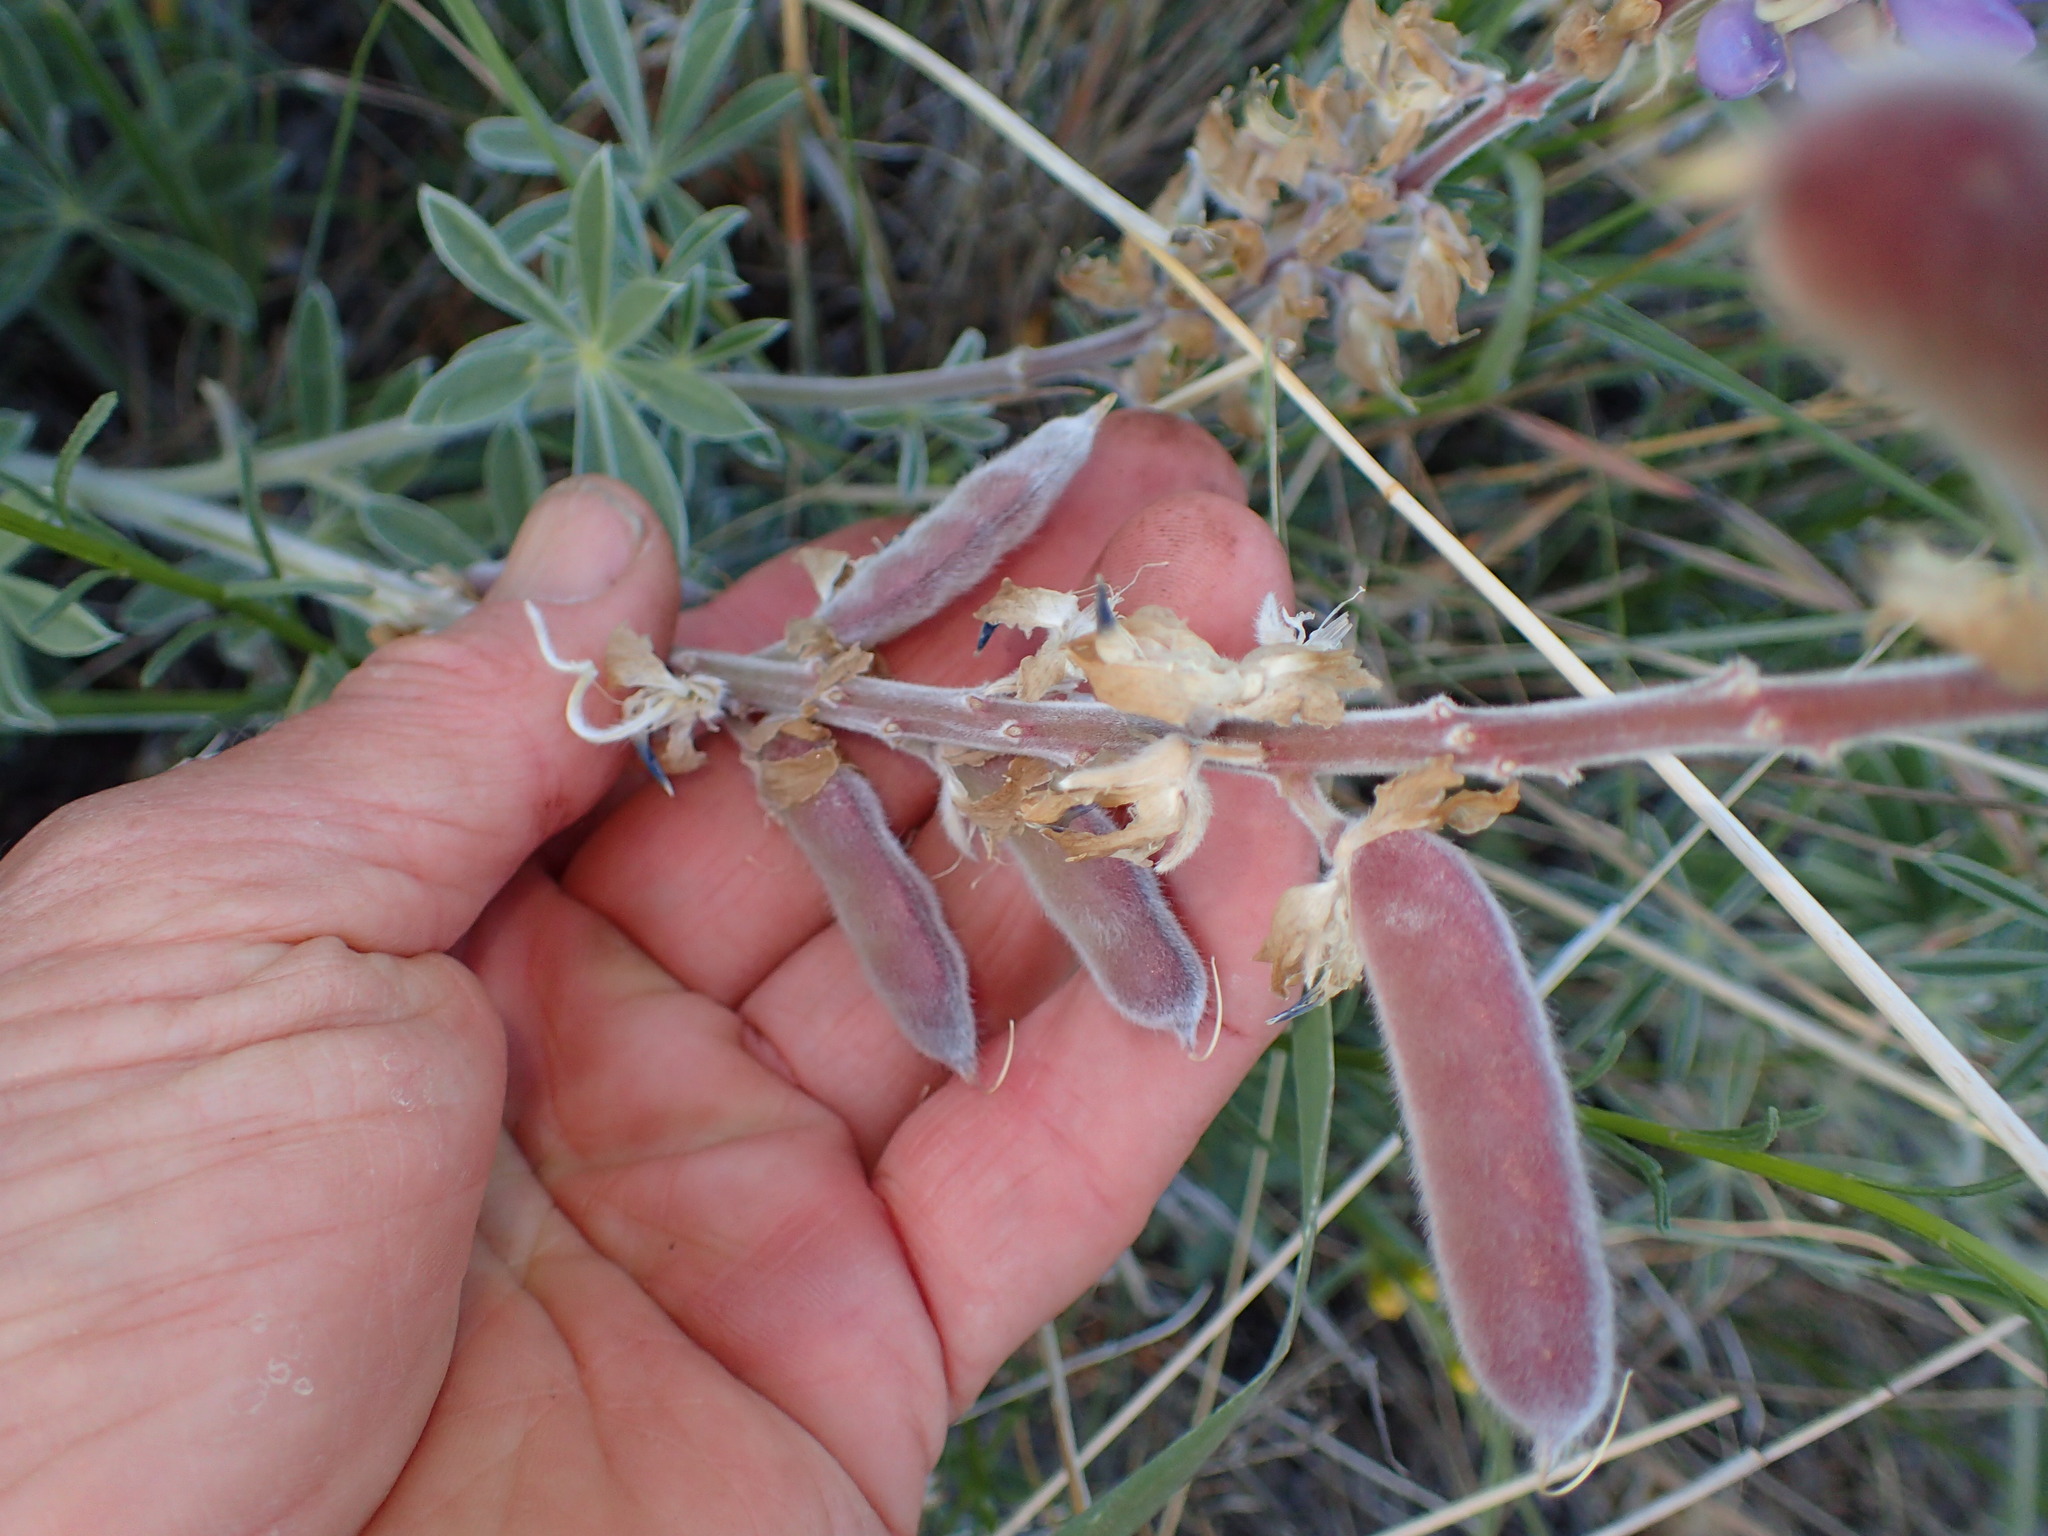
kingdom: Plantae
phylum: Tracheophyta
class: Magnoliopsida
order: Fabales
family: Fabaceae
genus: Lupinus
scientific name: Lupinus formosus
